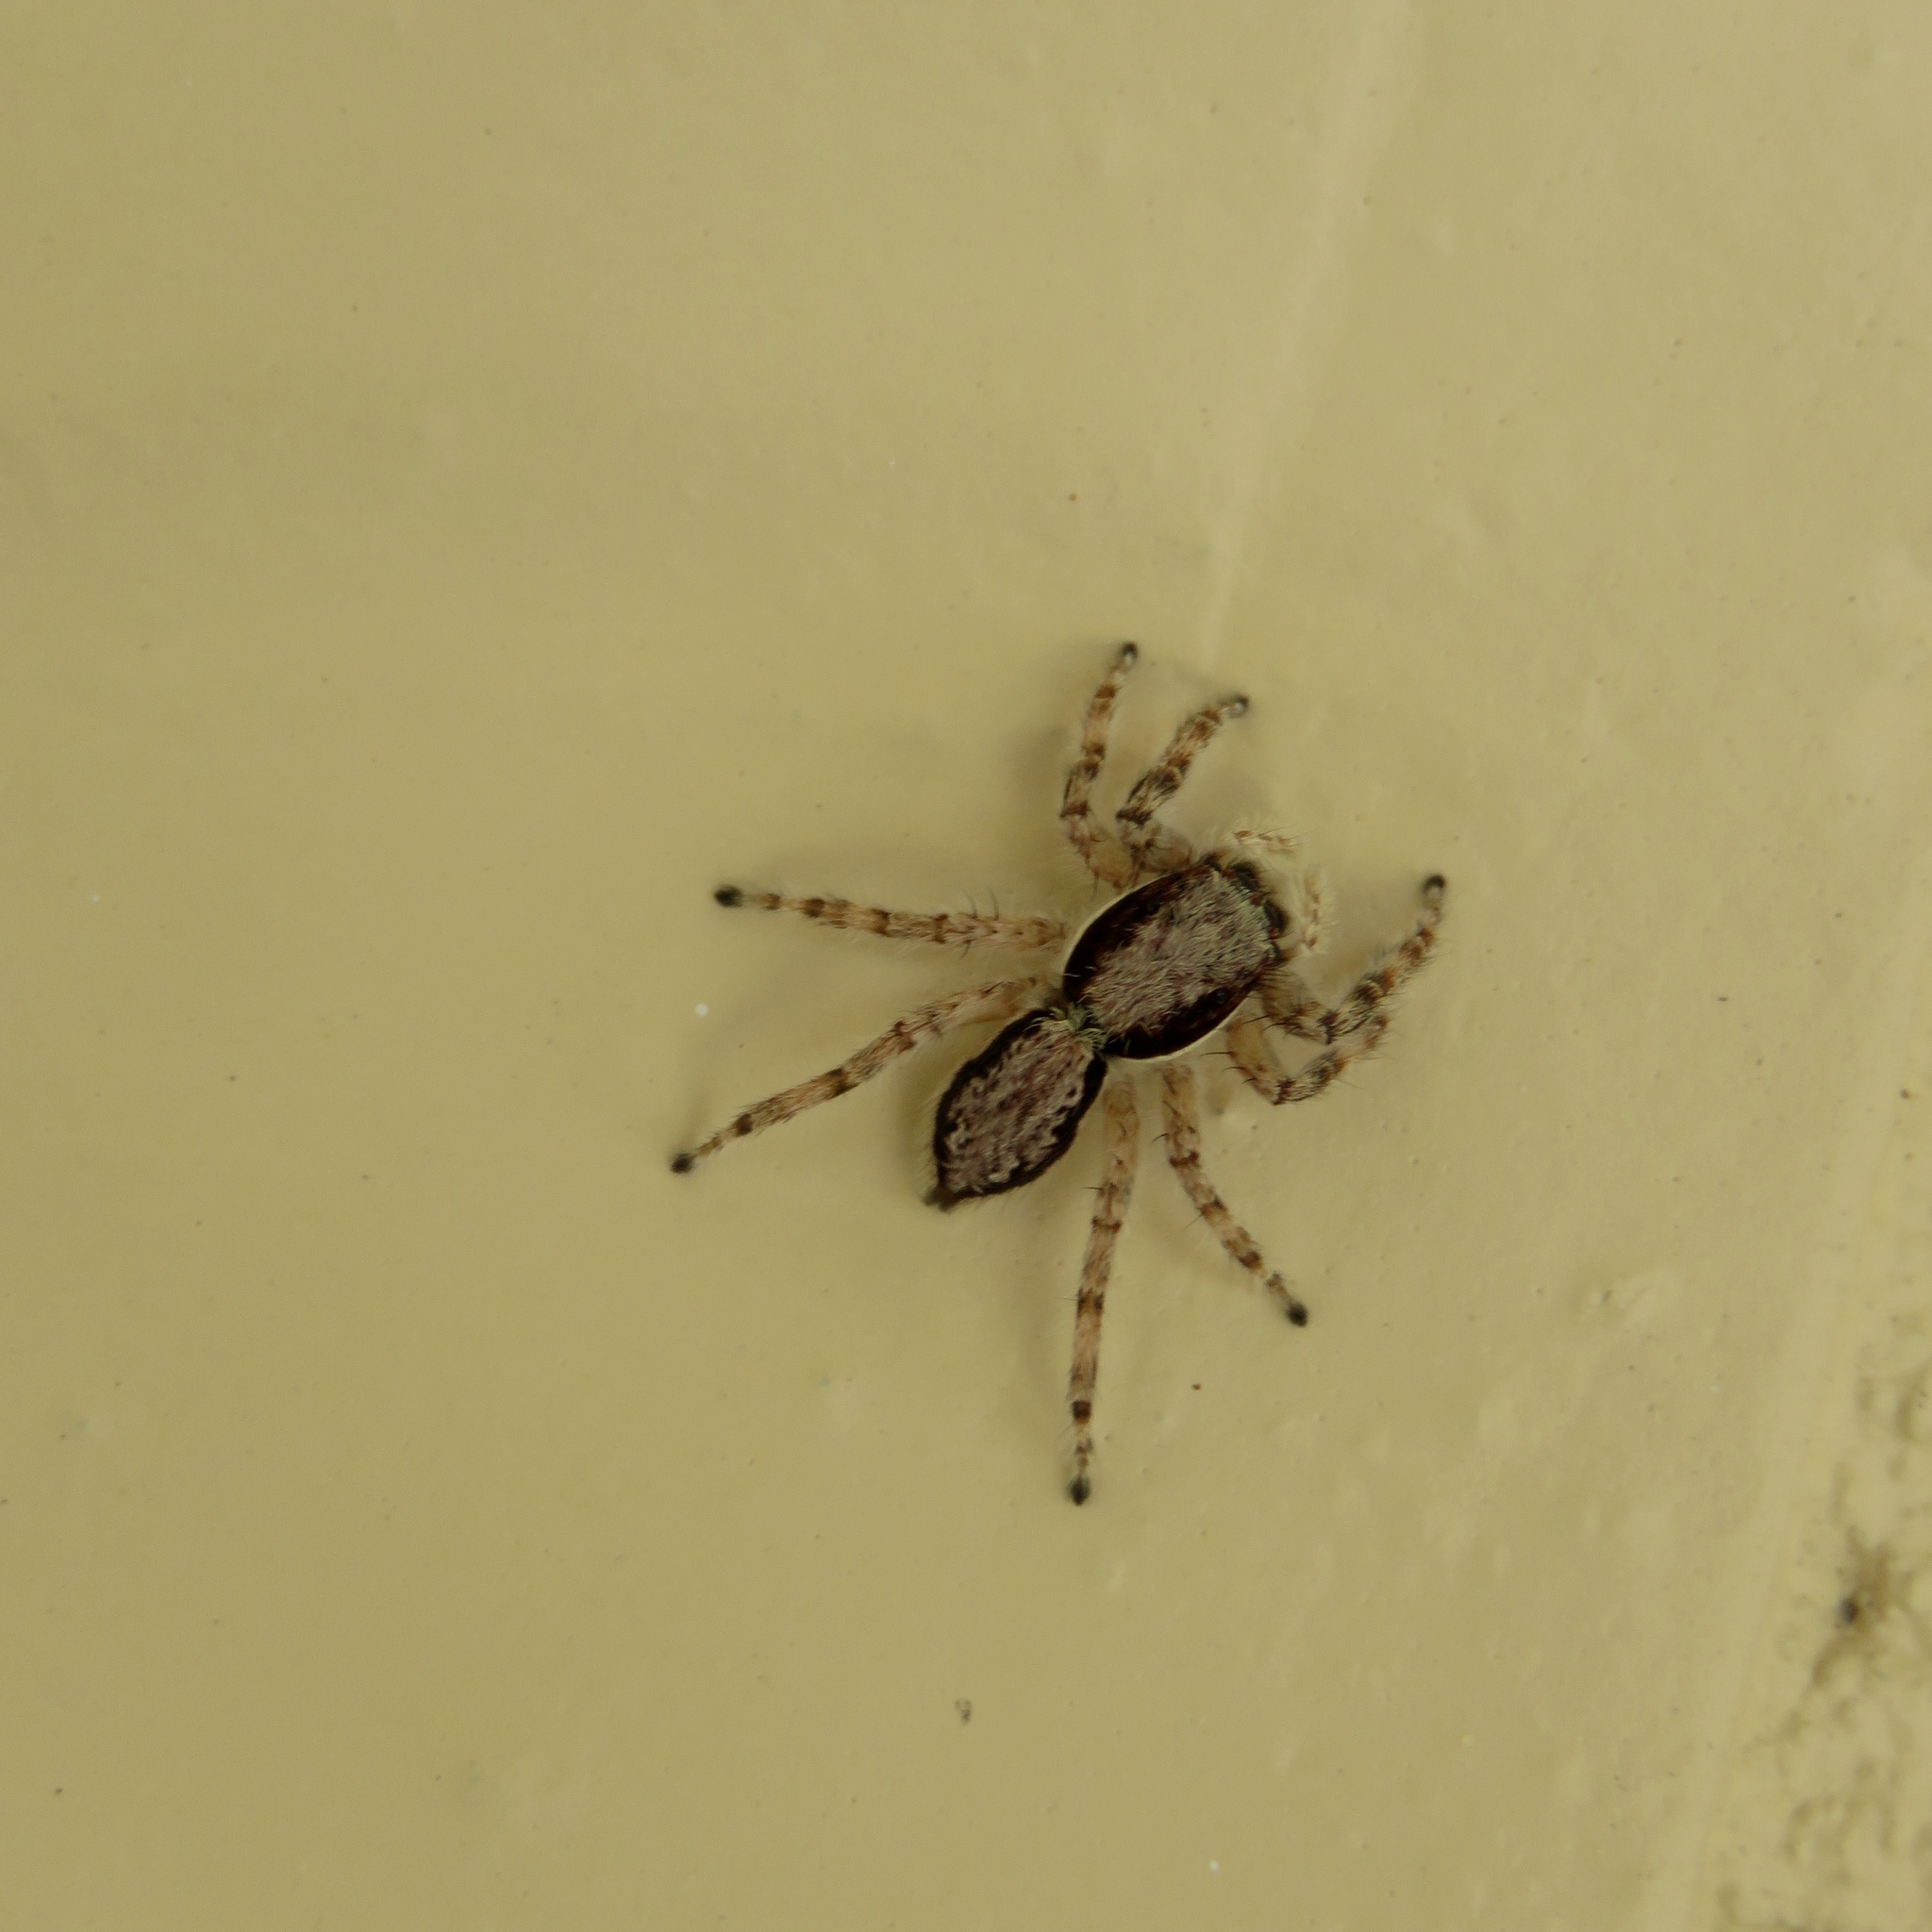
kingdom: Animalia
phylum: Arthropoda
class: Arachnida
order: Araneae
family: Salticidae
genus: Menemerus
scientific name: Menemerus bivittatus
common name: Gray wall jumper
